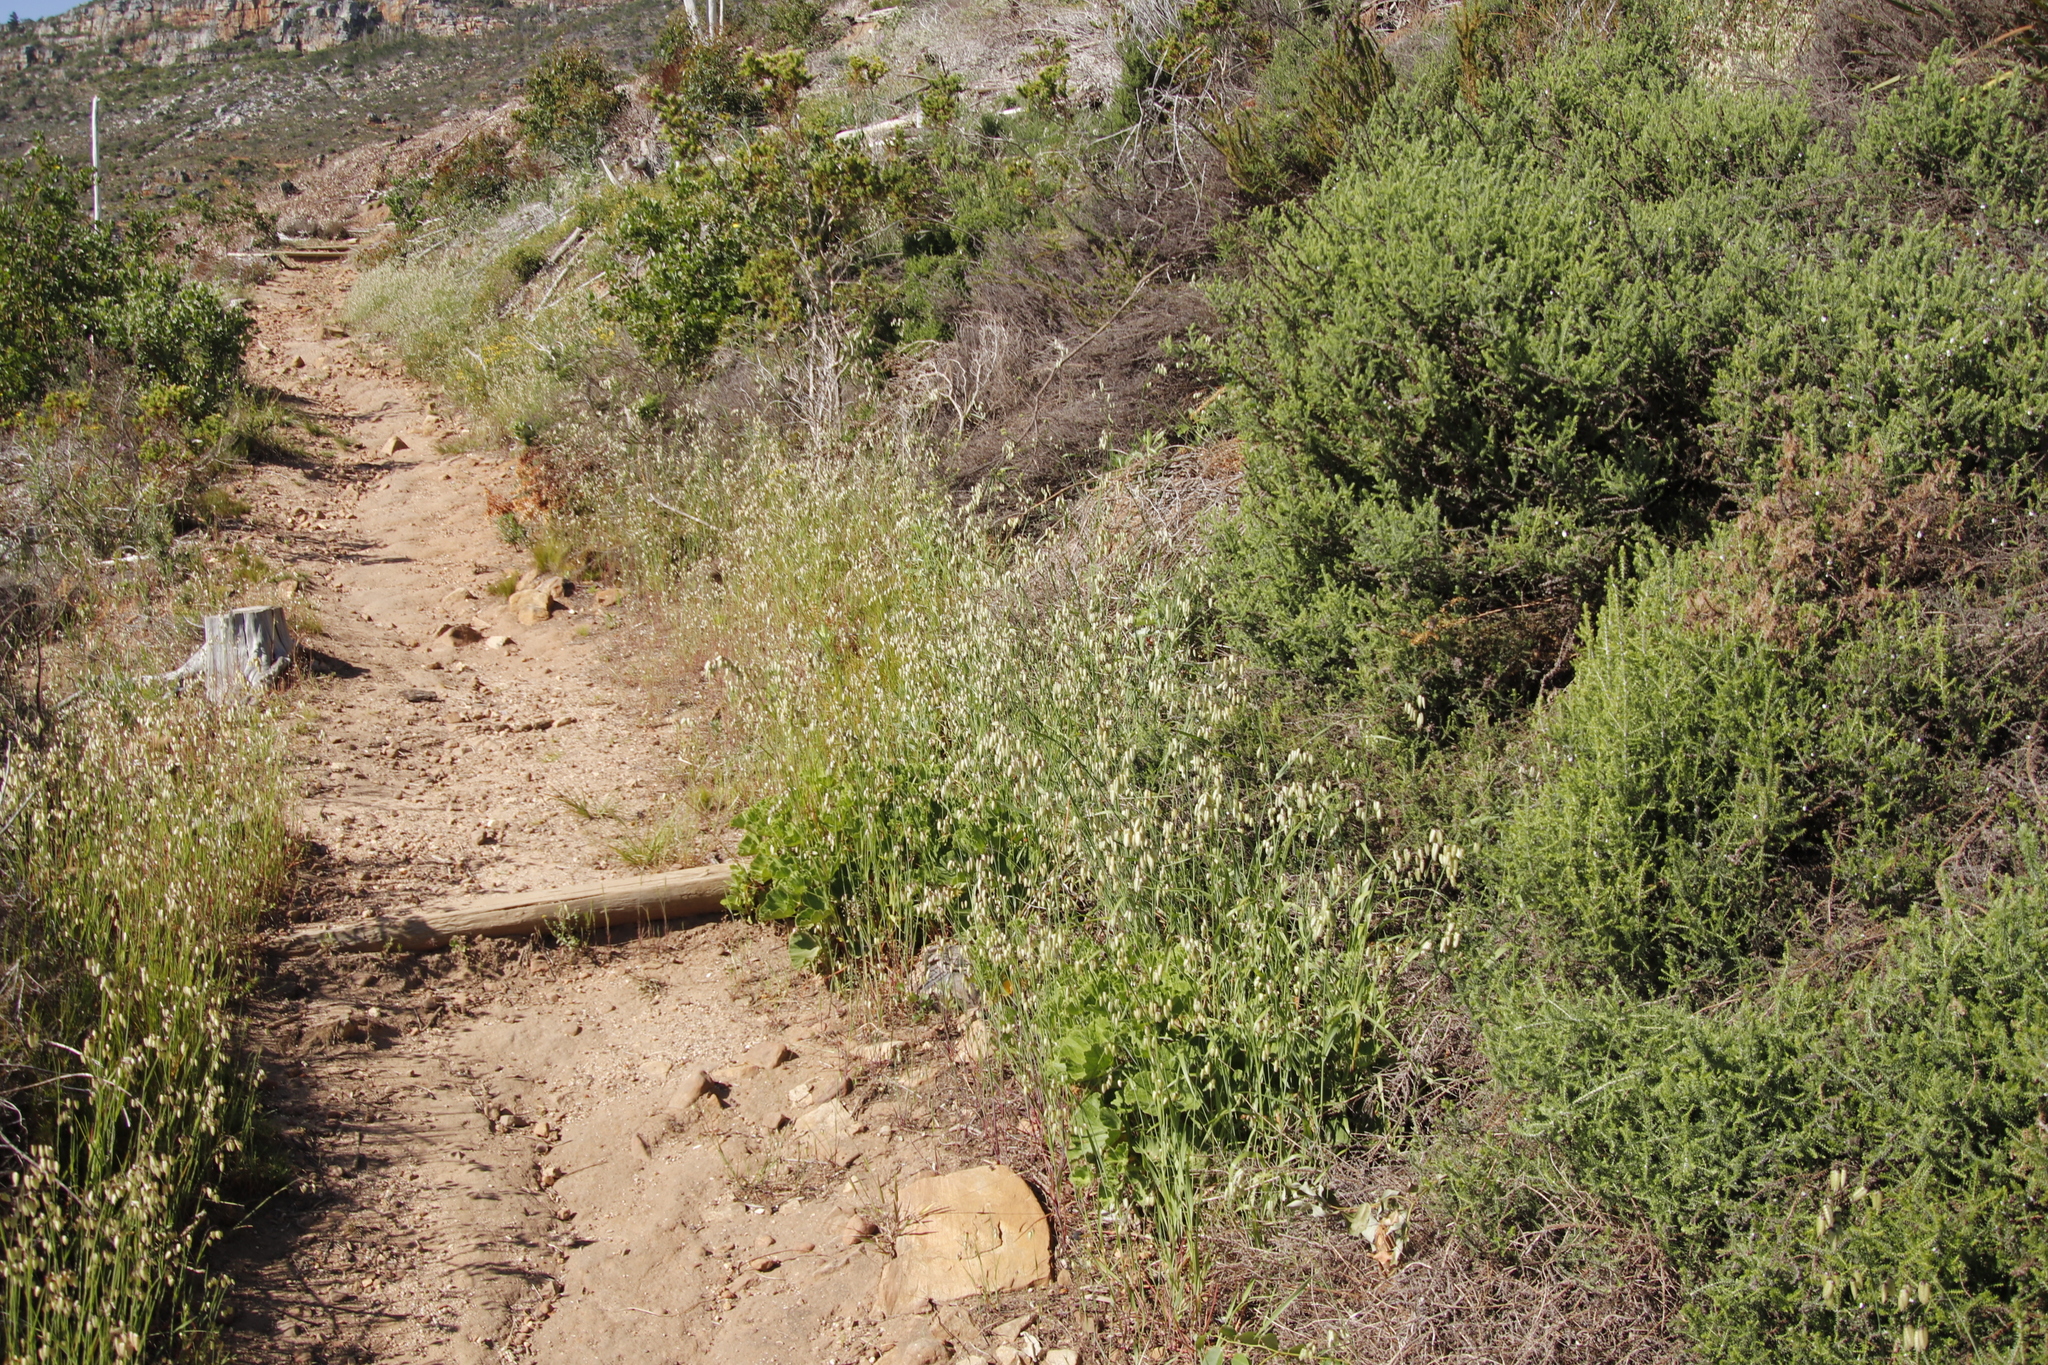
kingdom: Plantae
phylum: Tracheophyta
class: Liliopsida
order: Poales
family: Poaceae
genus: Briza
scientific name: Briza maxima
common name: Big quakinggrass
